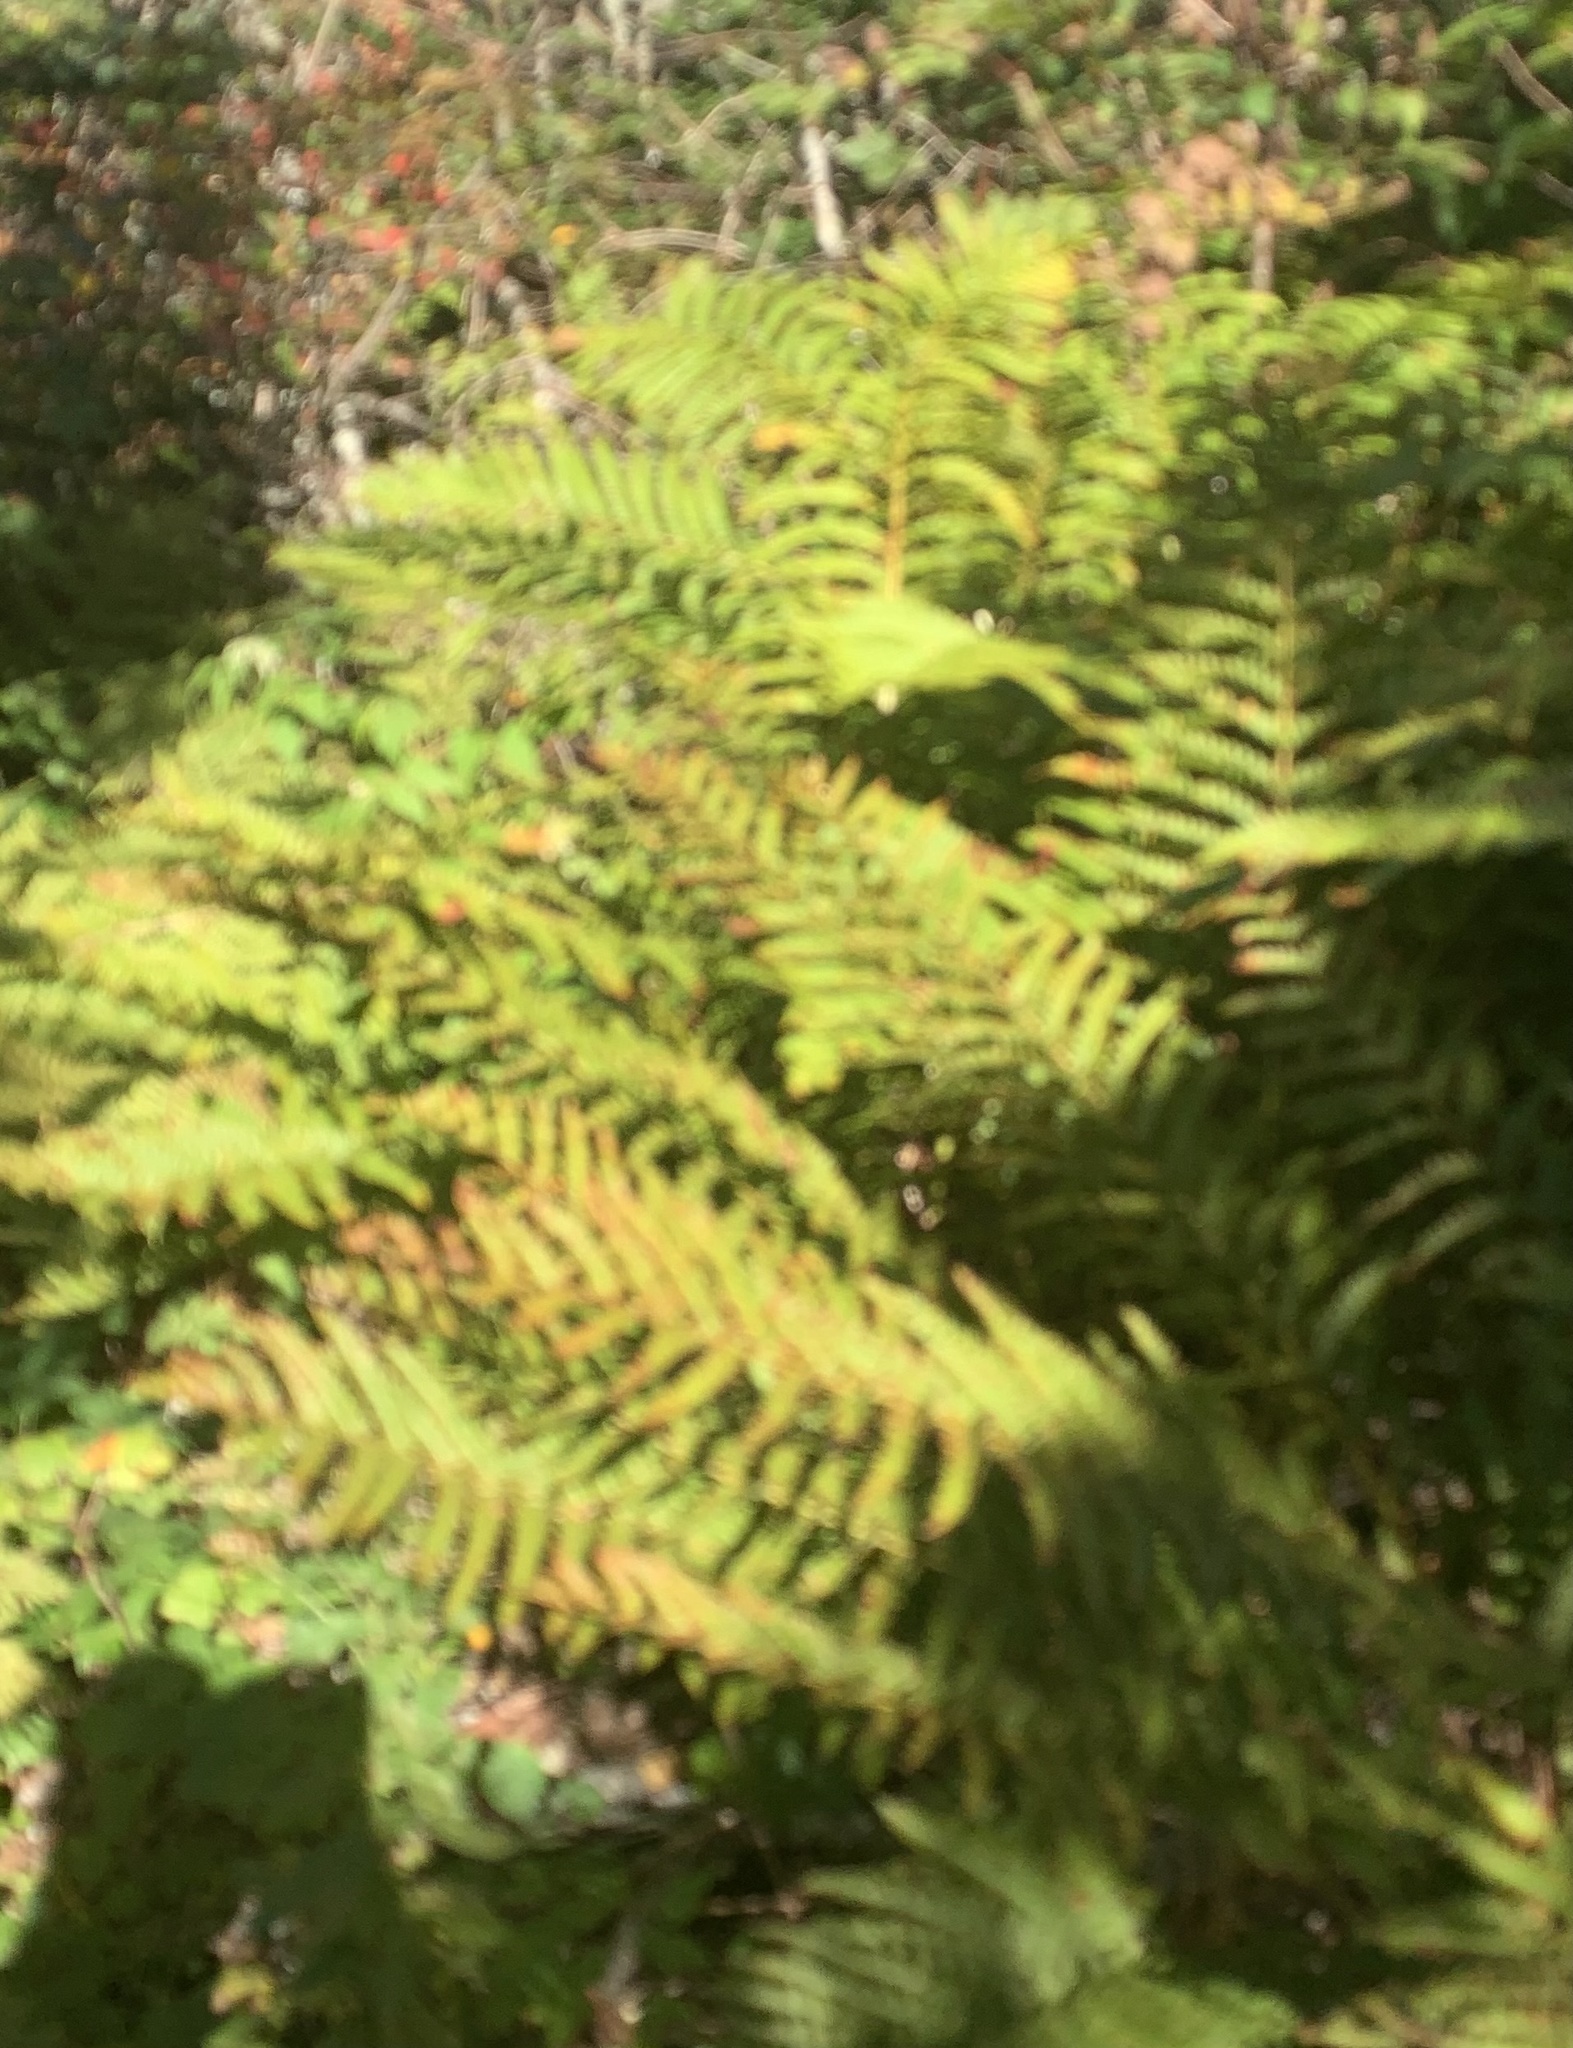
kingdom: Plantae
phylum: Tracheophyta
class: Polypodiopsida
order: Osmundales
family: Osmundaceae
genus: Osmundastrum
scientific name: Osmundastrum cinnamomeum
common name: Cinnamon fern
